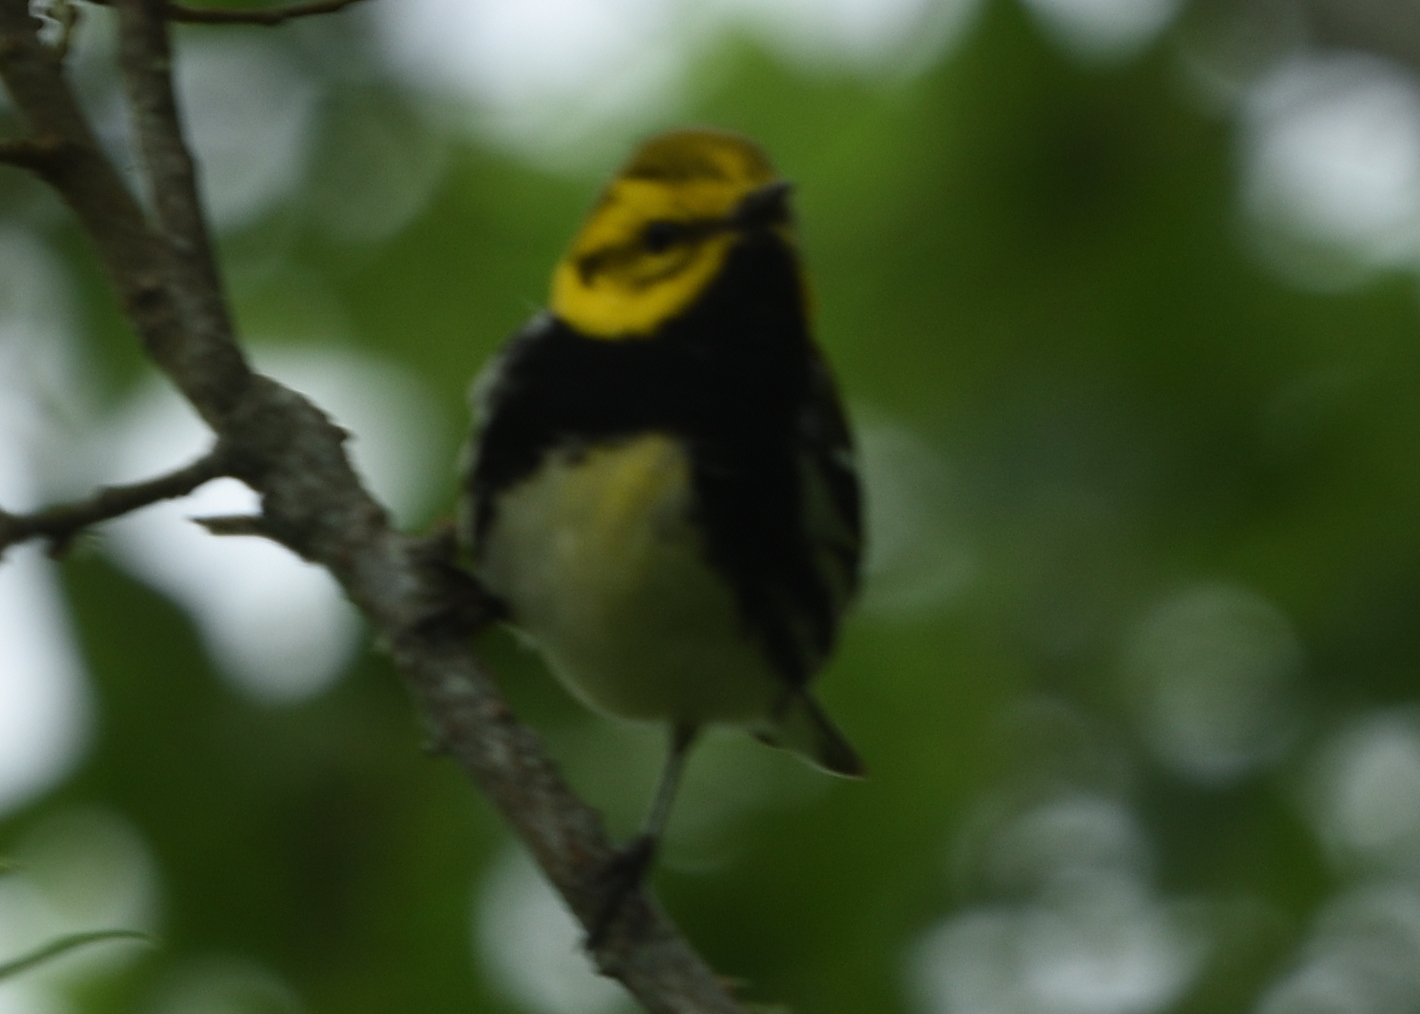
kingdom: Animalia
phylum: Chordata
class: Aves
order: Passeriformes
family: Parulidae
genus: Setophaga
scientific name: Setophaga virens
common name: Black-throated green warbler
